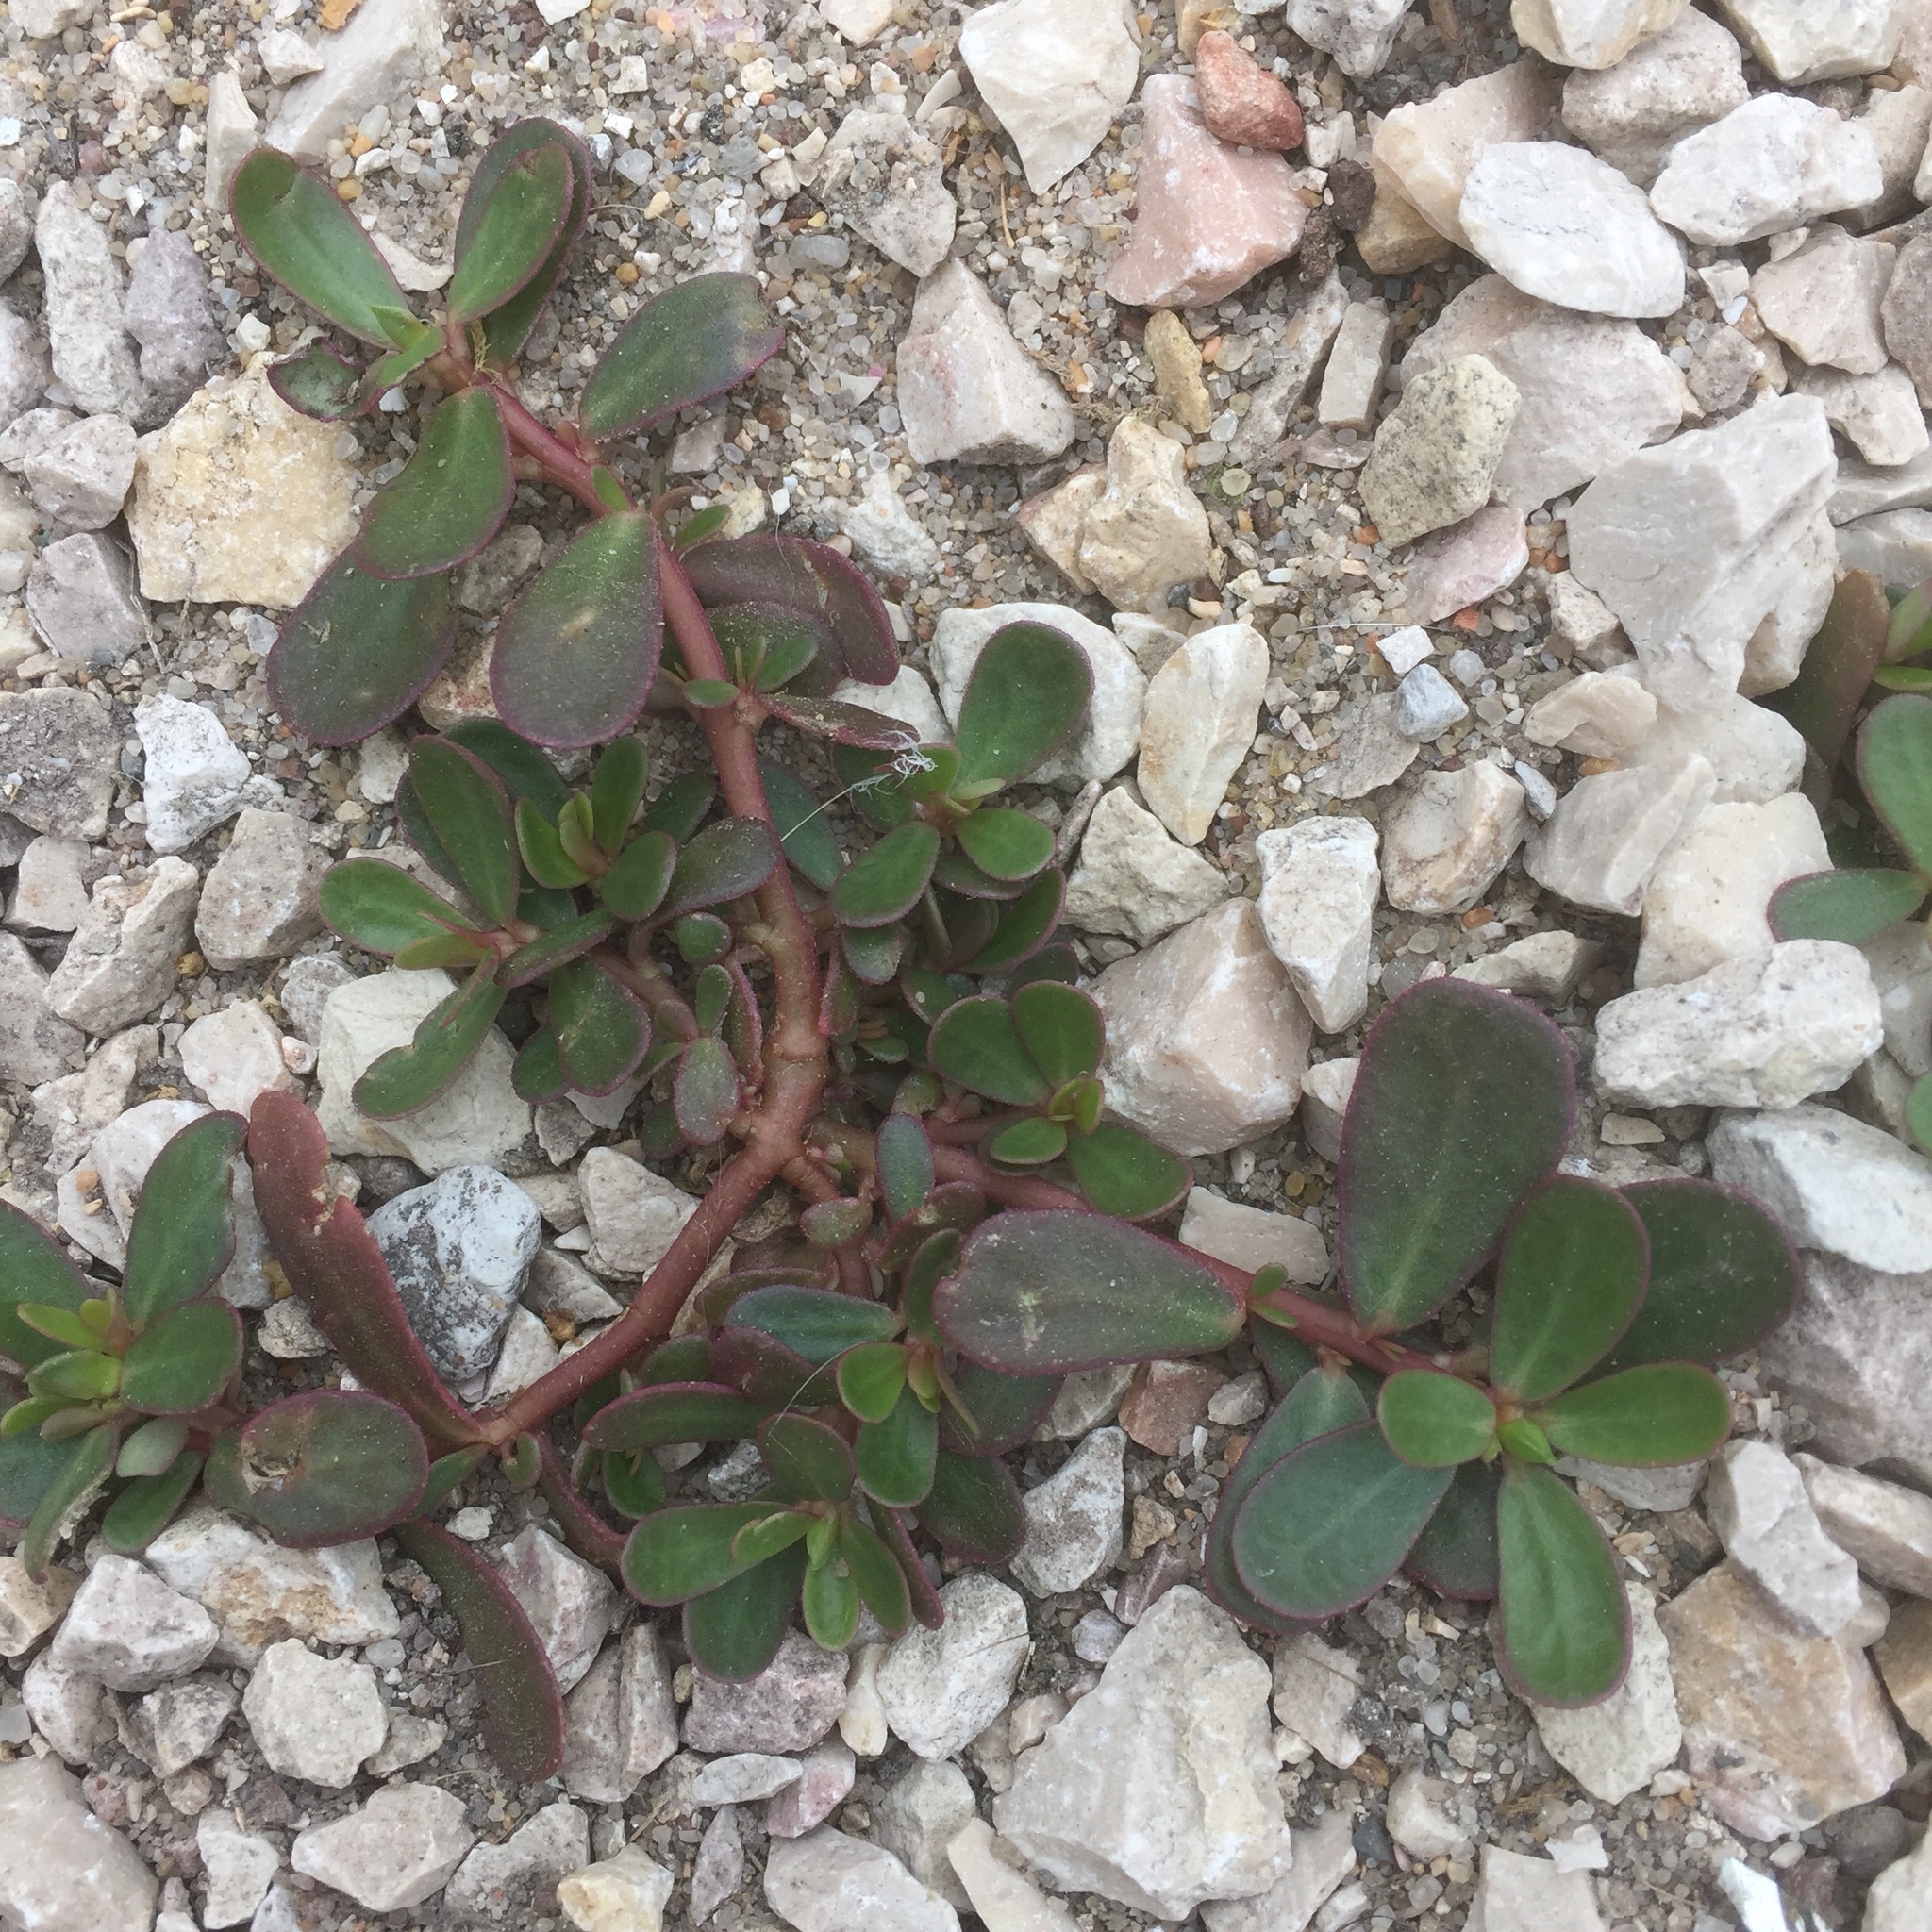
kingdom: Plantae
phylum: Tracheophyta
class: Magnoliopsida
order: Caryophyllales
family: Portulacaceae
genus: Portulaca
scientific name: Portulaca oleracea
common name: Common purslane
